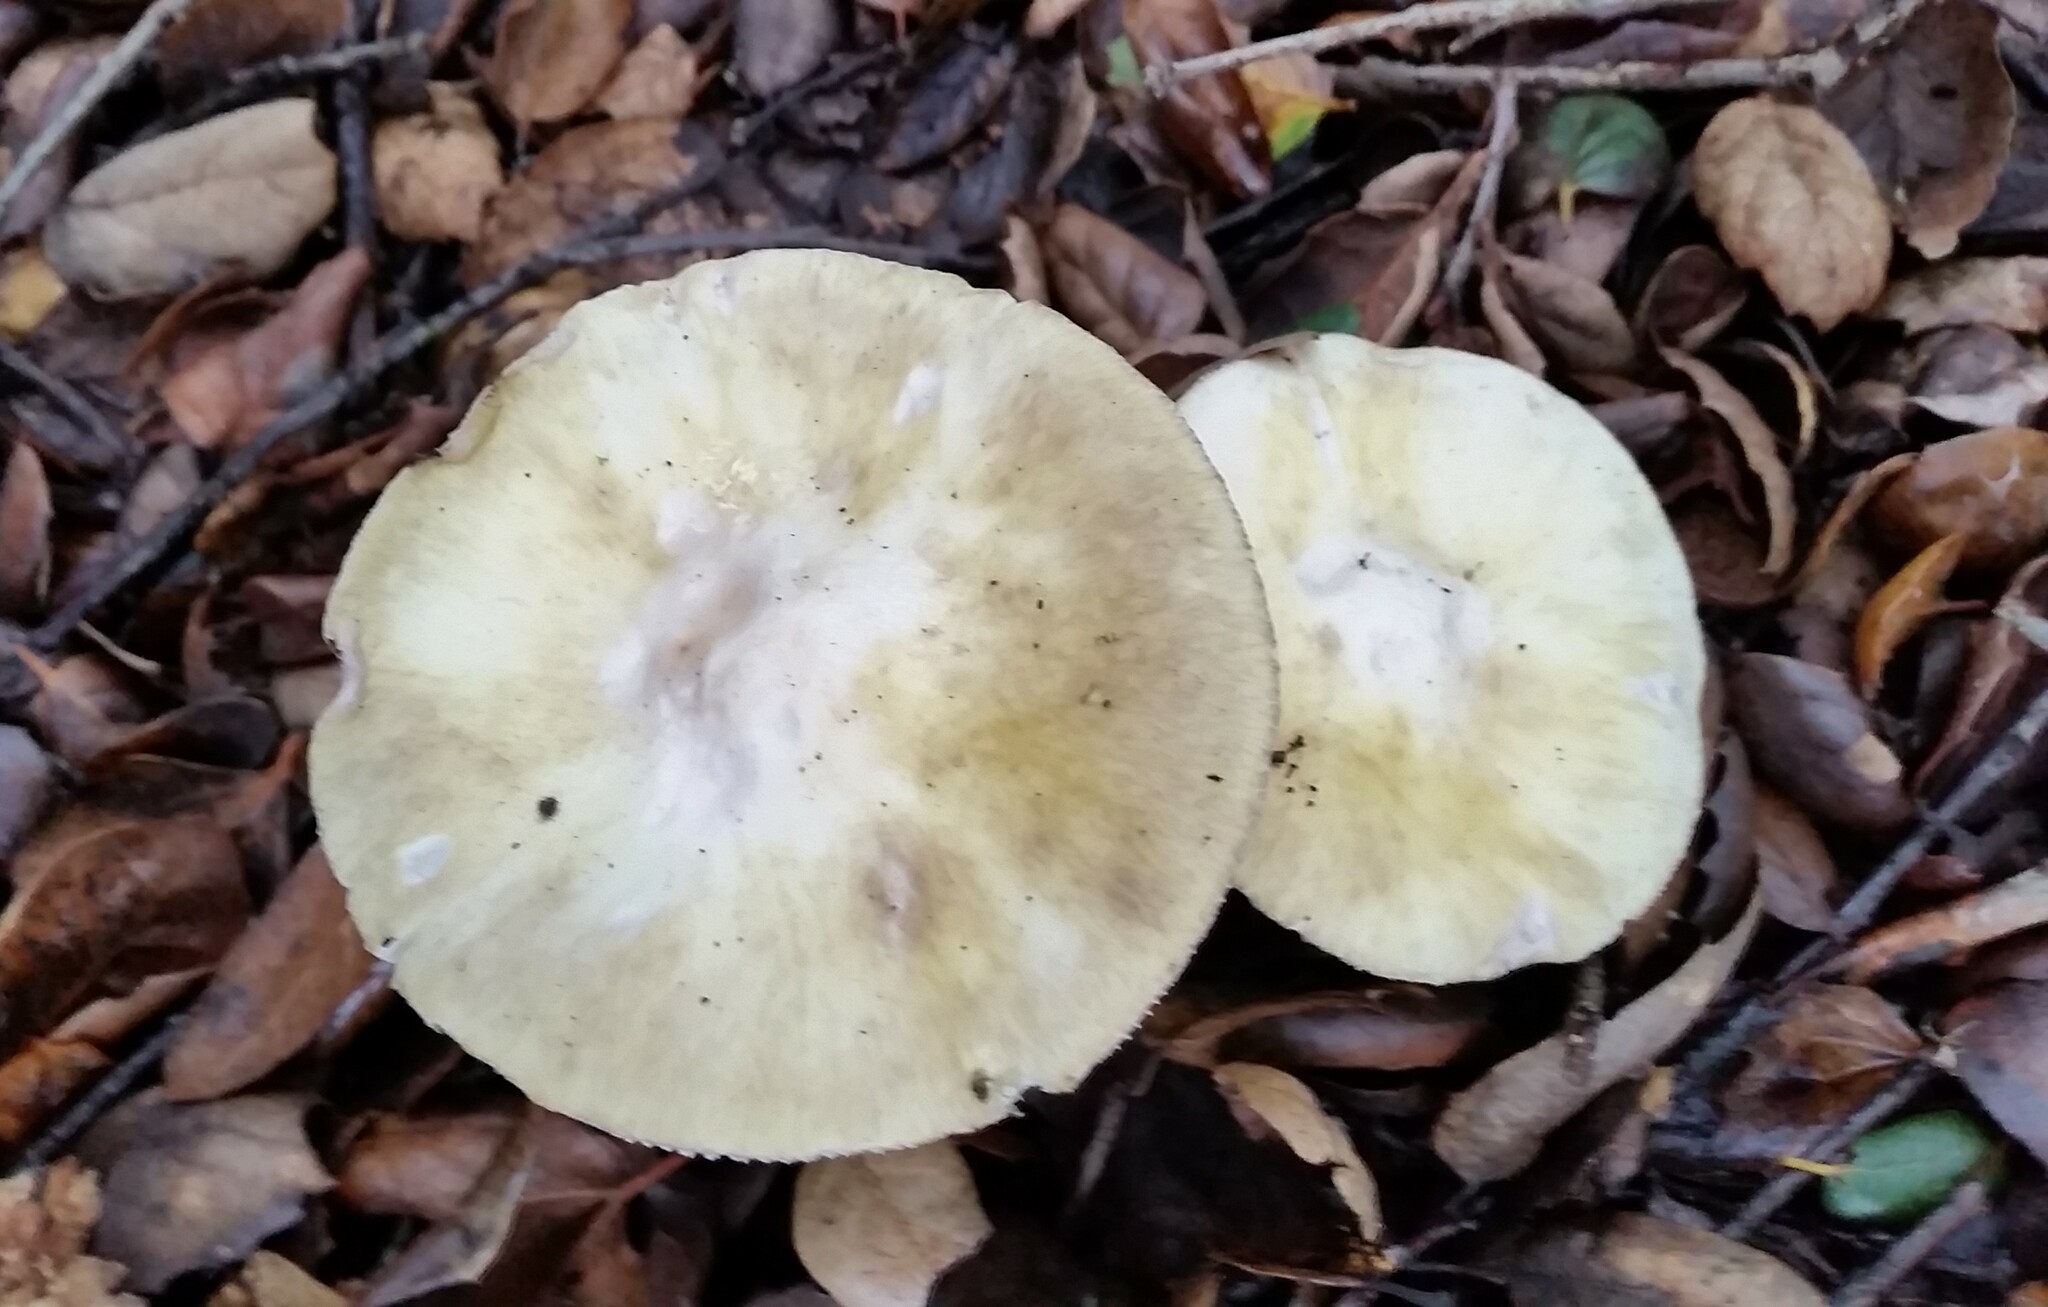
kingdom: Fungi
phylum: Basidiomycota
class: Agaricomycetes
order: Agaricales
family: Amanitaceae
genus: Amanita
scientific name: Amanita phalloides
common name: Death cap
